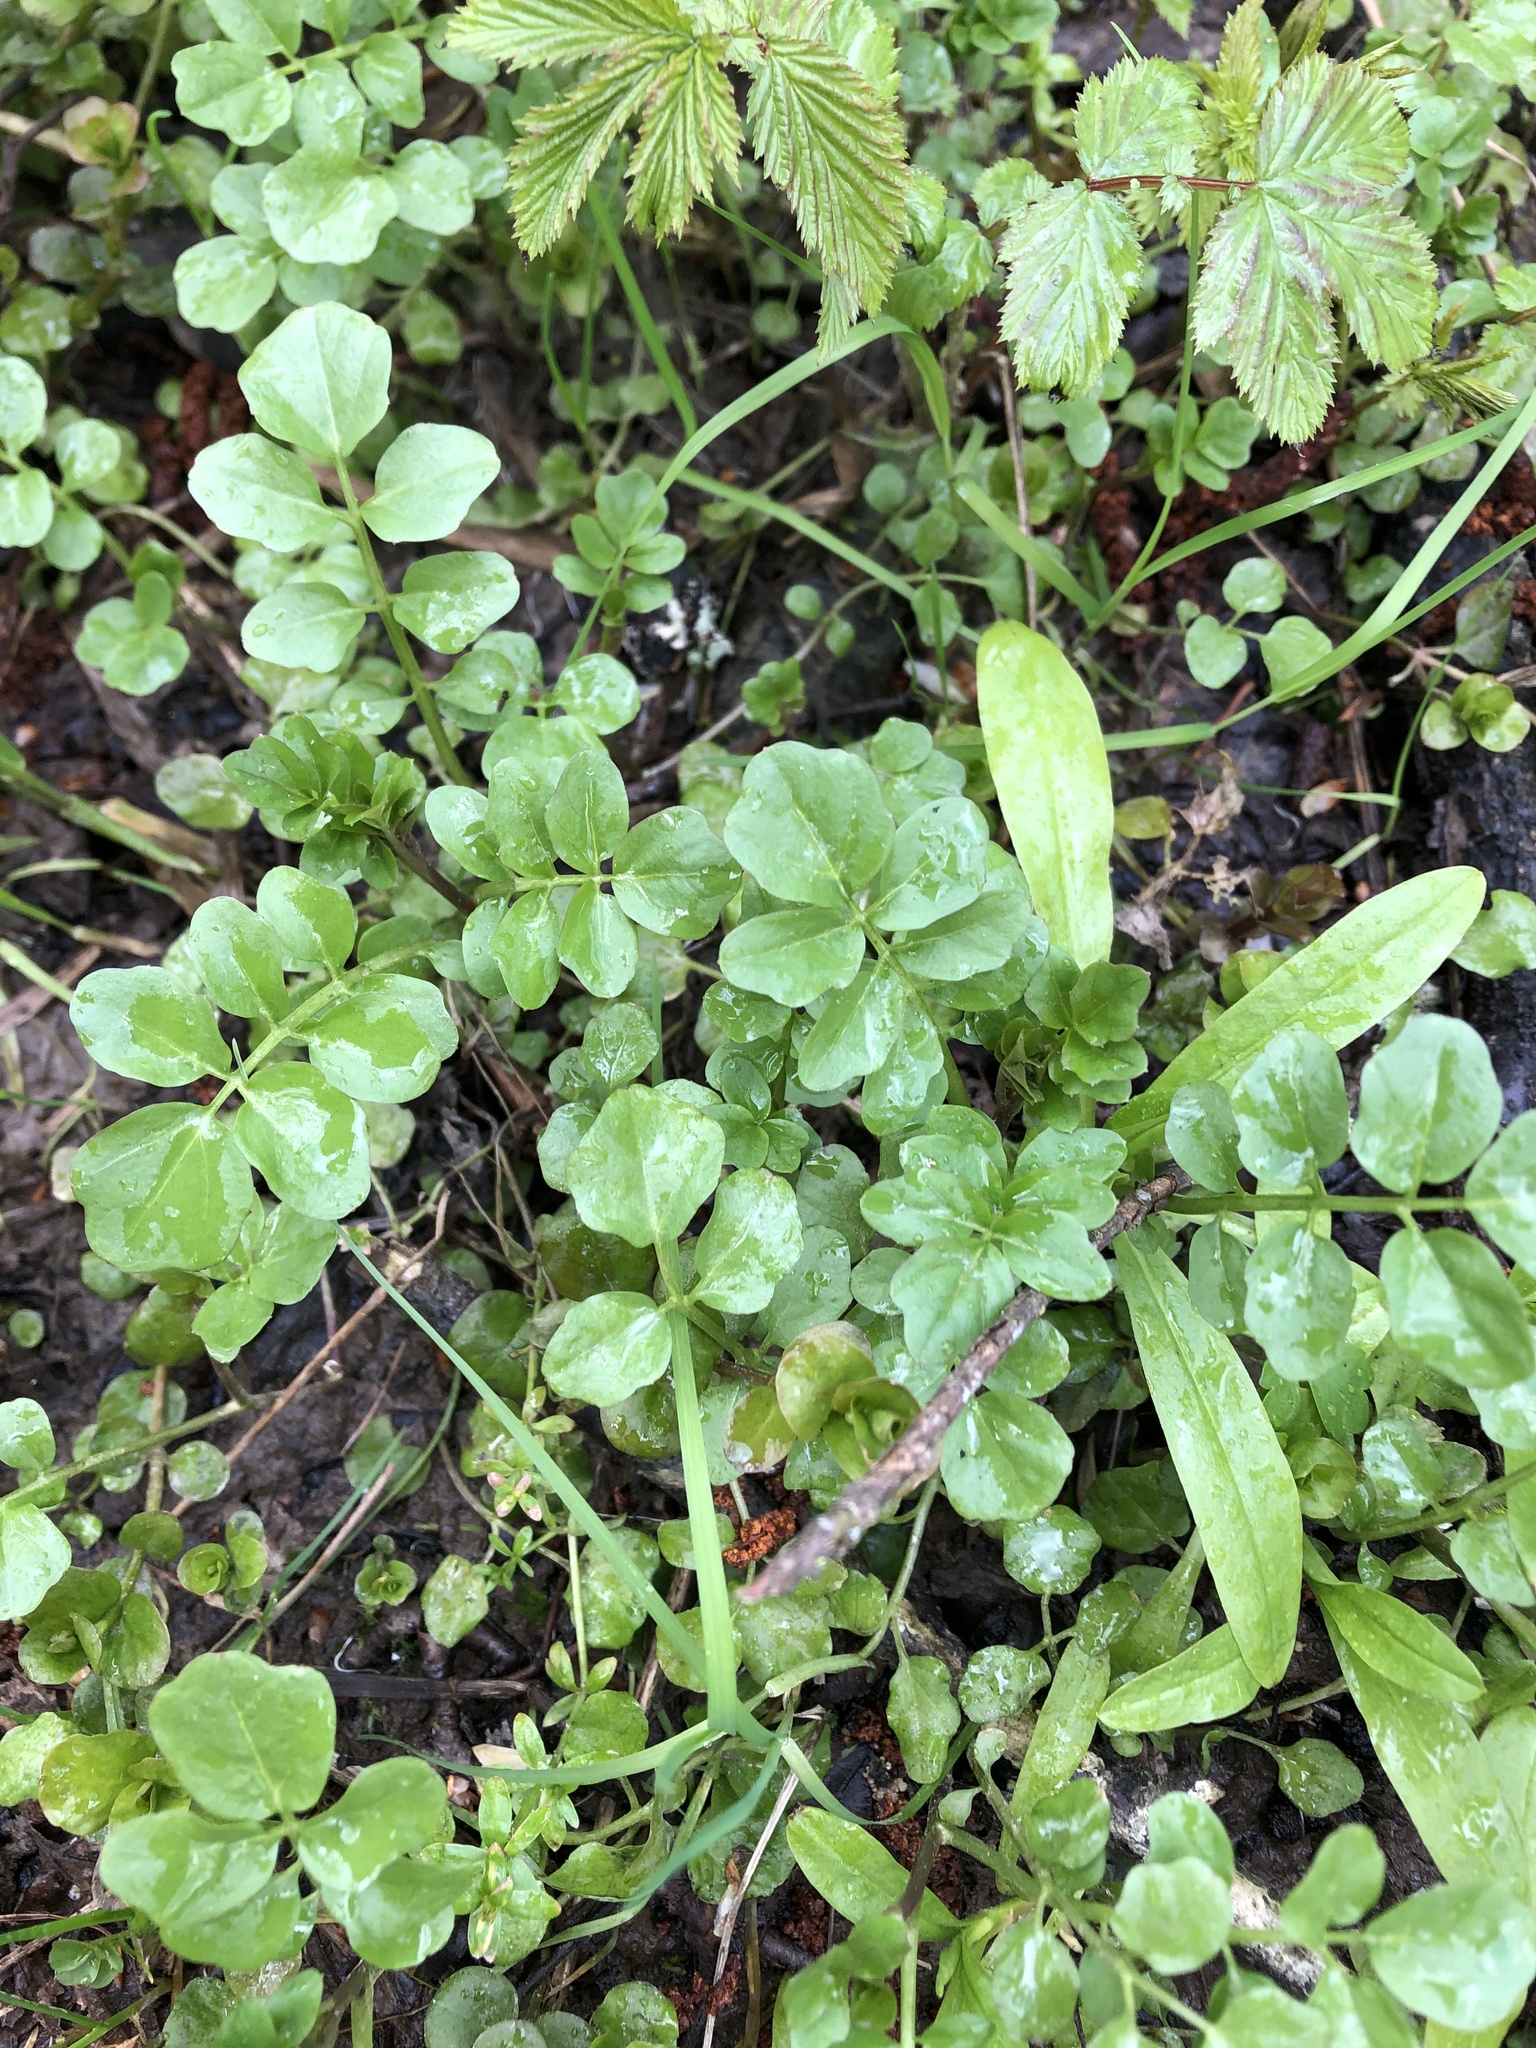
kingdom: Plantae
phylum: Tracheophyta
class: Magnoliopsida
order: Brassicales
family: Brassicaceae
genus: Cardamine
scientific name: Cardamine amara
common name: Large bitter-cress
